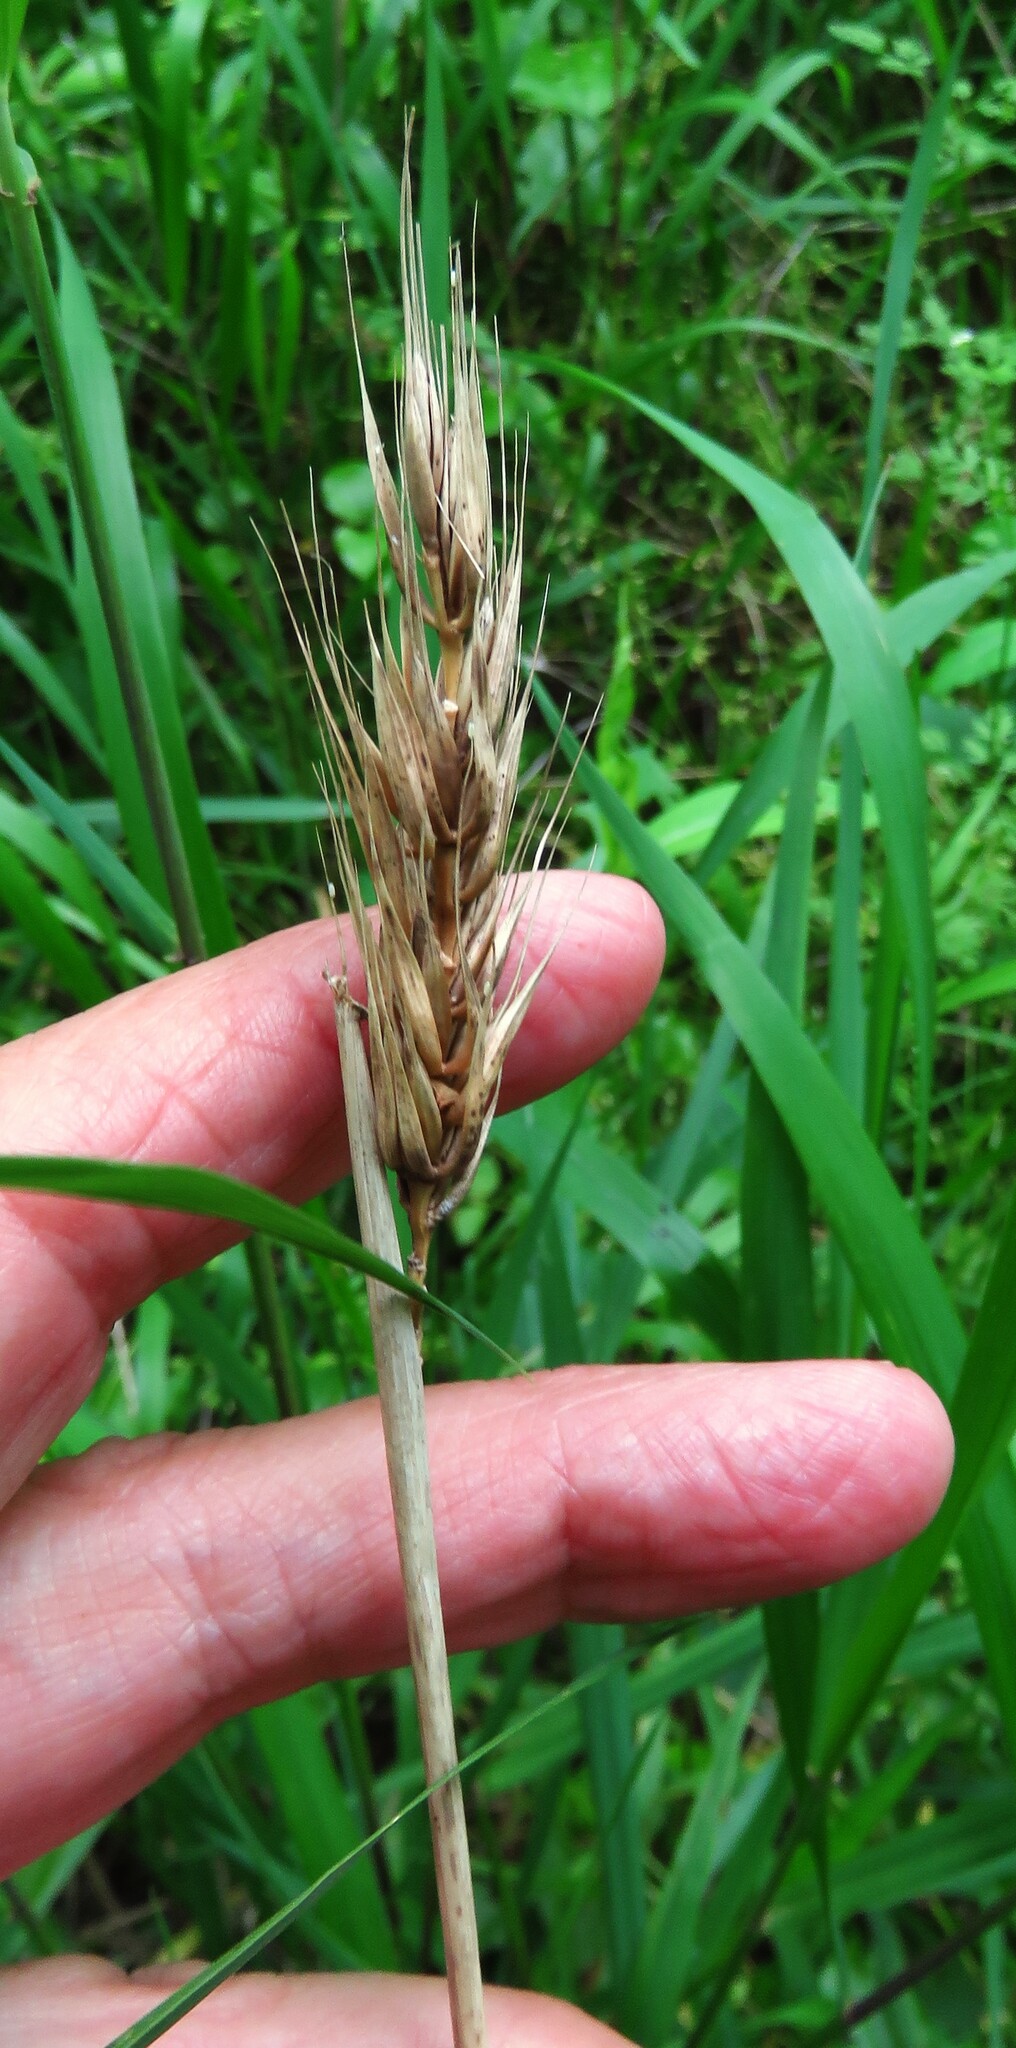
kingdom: Plantae
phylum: Tracheophyta
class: Liliopsida
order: Poales
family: Poaceae
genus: Elymus
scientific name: Elymus virginicus
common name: Common eastern wildrye
